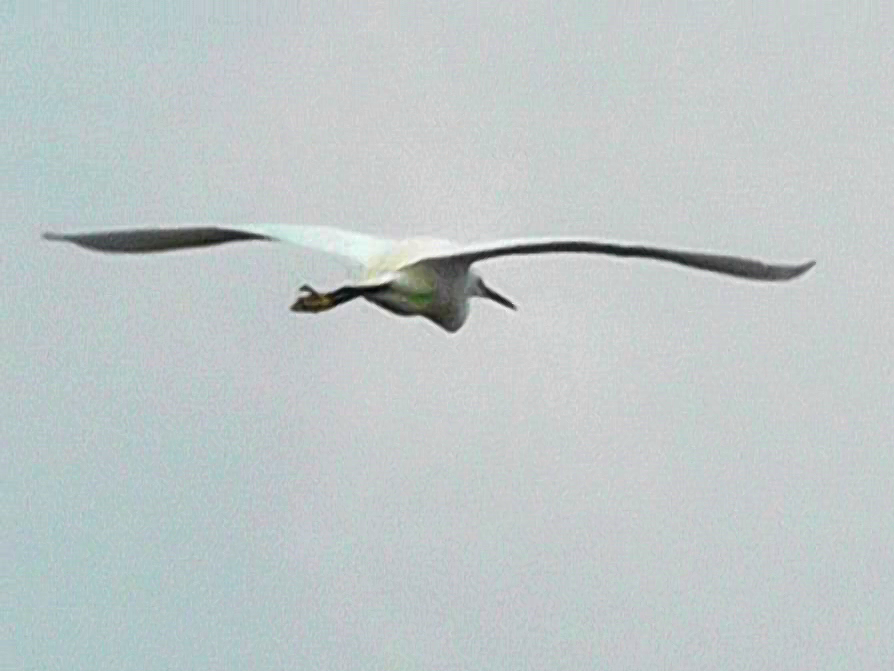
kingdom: Animalia
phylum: Chordata
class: Aves
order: Pelecaniformes
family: Ardeidae
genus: Egretta
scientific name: Egretta garzetta
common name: Little egret
